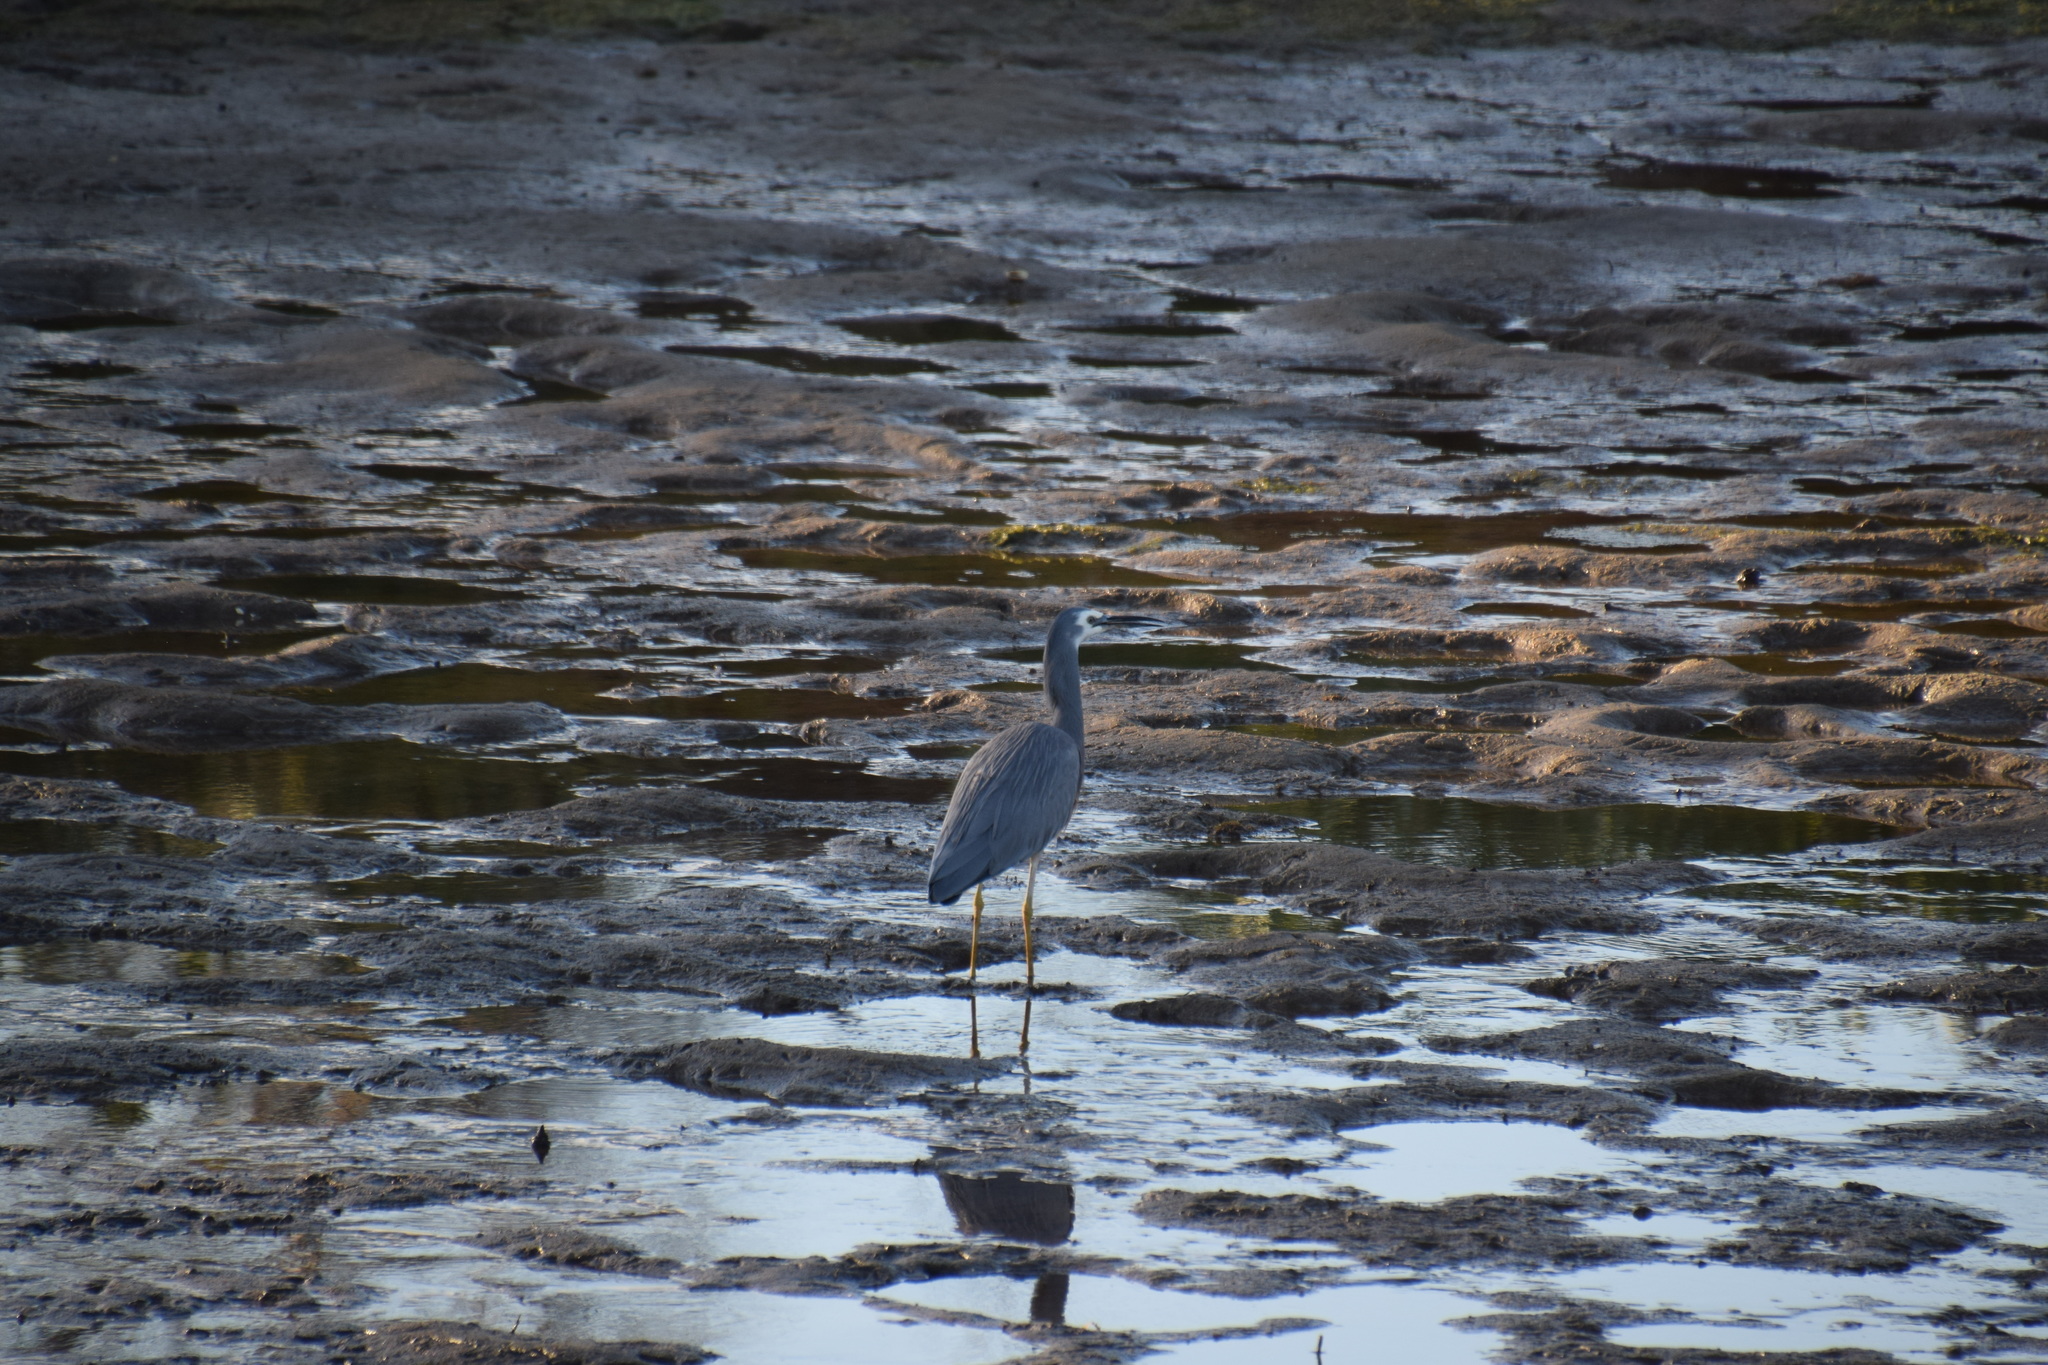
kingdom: Animalia
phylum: Chordata
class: Aves
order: Pelecaniformes
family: Ardeidae
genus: Egretta
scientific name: Egretta novaehollandiae
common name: White-faced heron
